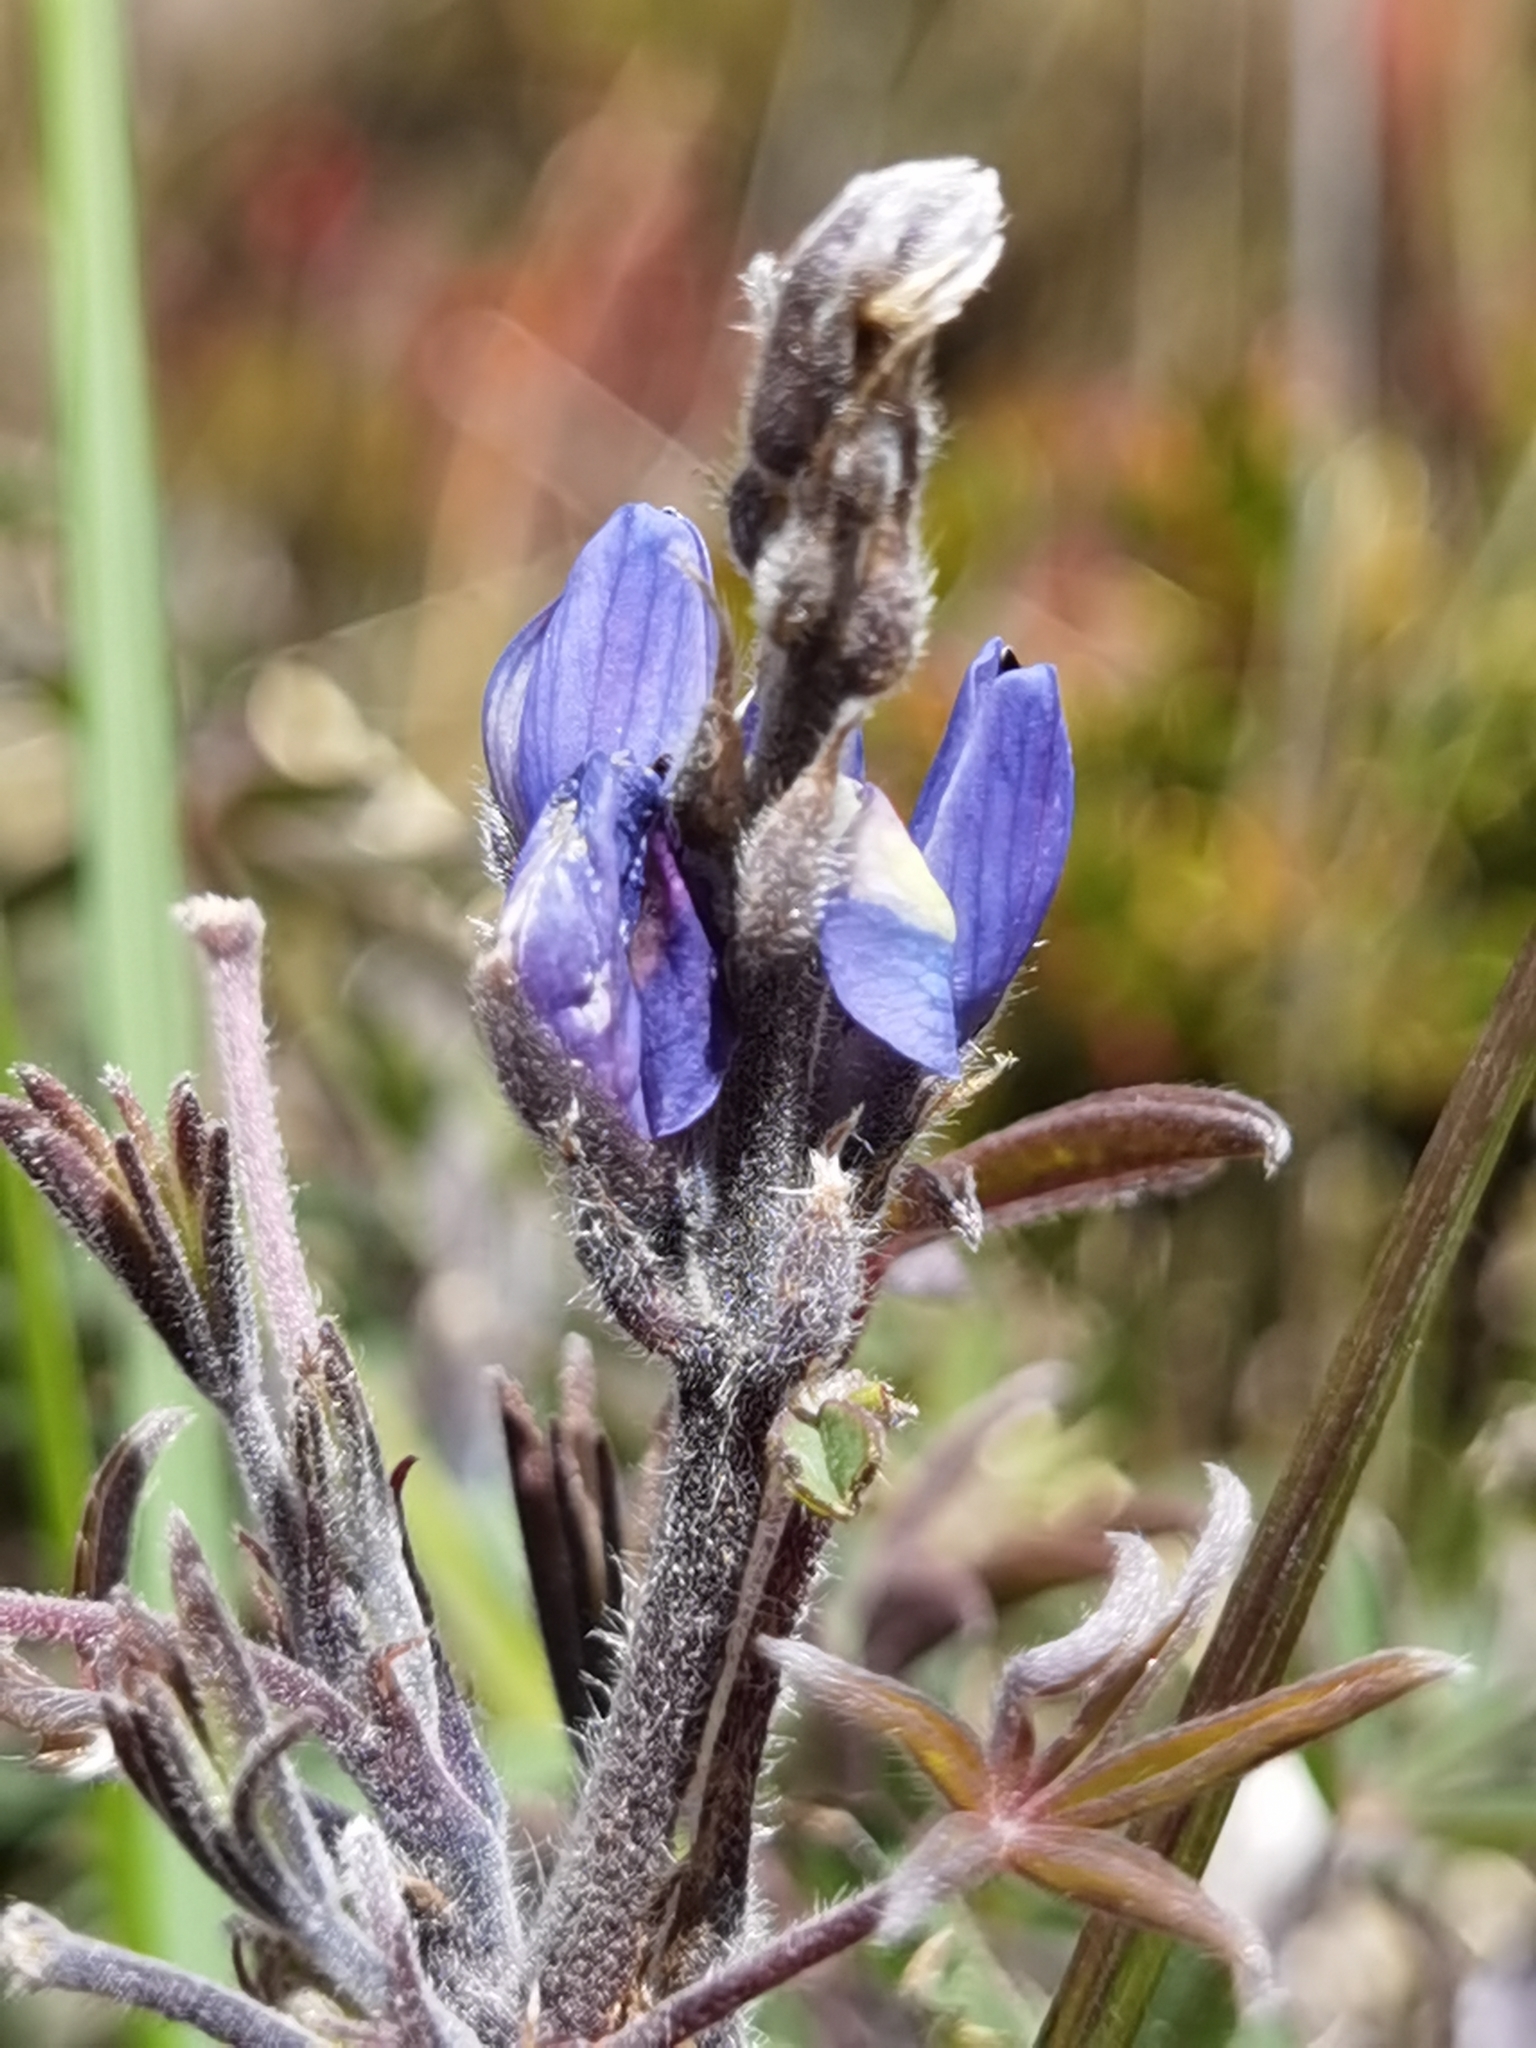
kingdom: Plantae
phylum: Tracheophyta
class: Magnoliopsida
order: Fabales
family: Fabaceae
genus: Lupinus
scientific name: Lupinus costaricensis
